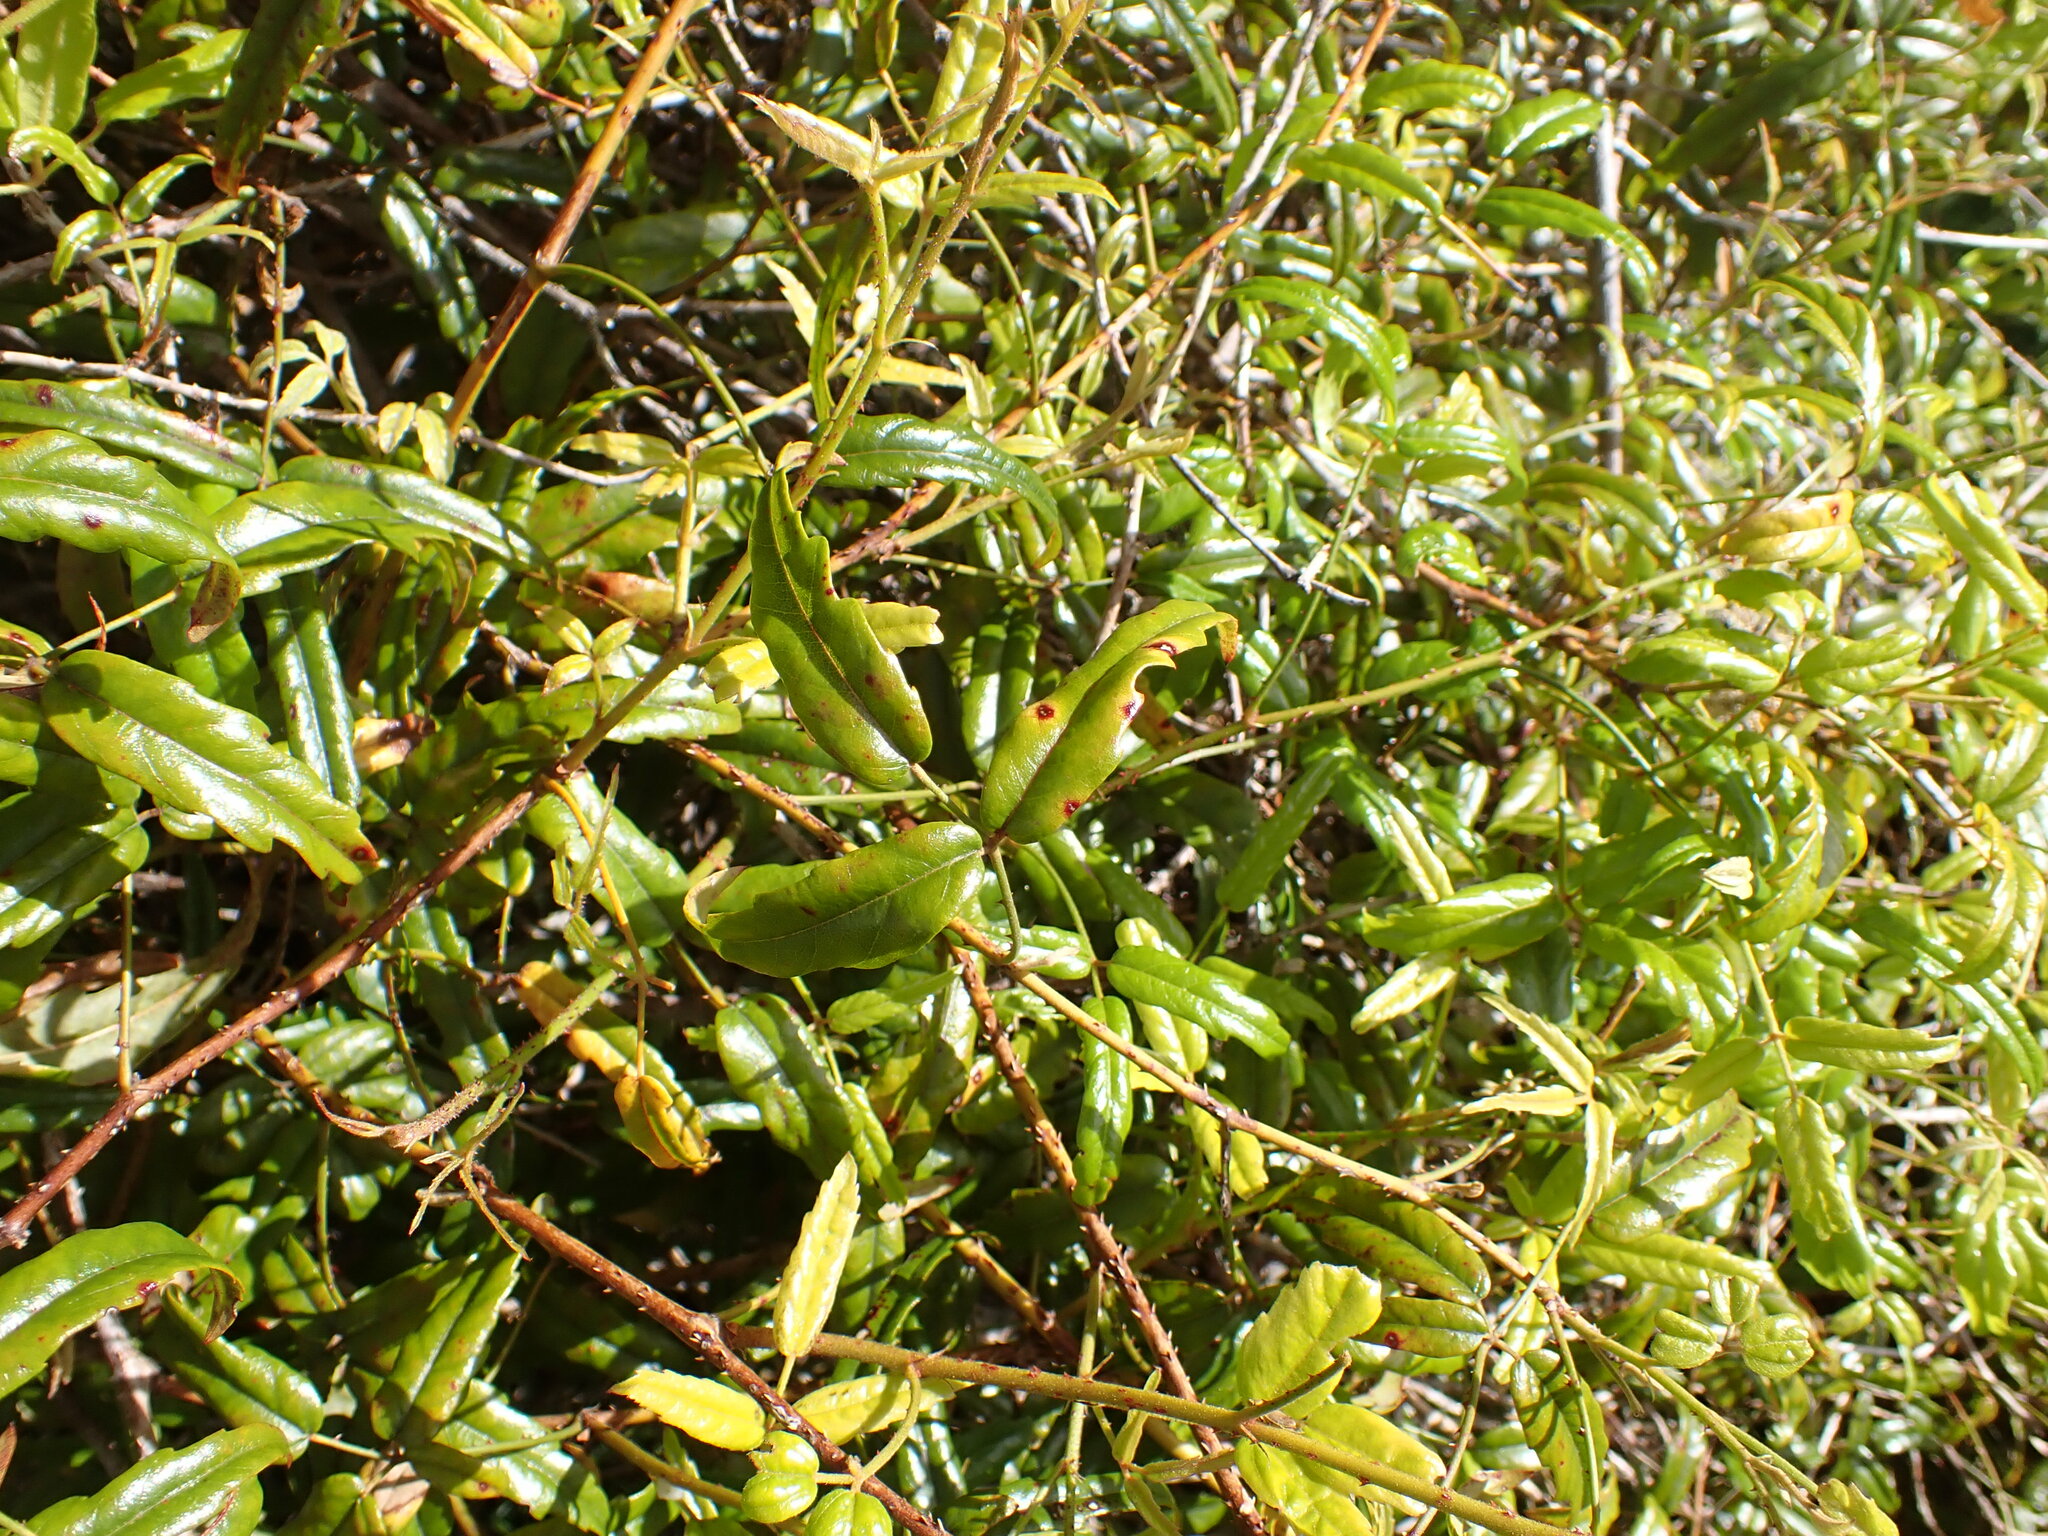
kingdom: Plantae
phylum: Tracheophyta
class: Magnoliopsida
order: Rosales
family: Rosaceae
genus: Rubus
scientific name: Rubus schmidelioides
